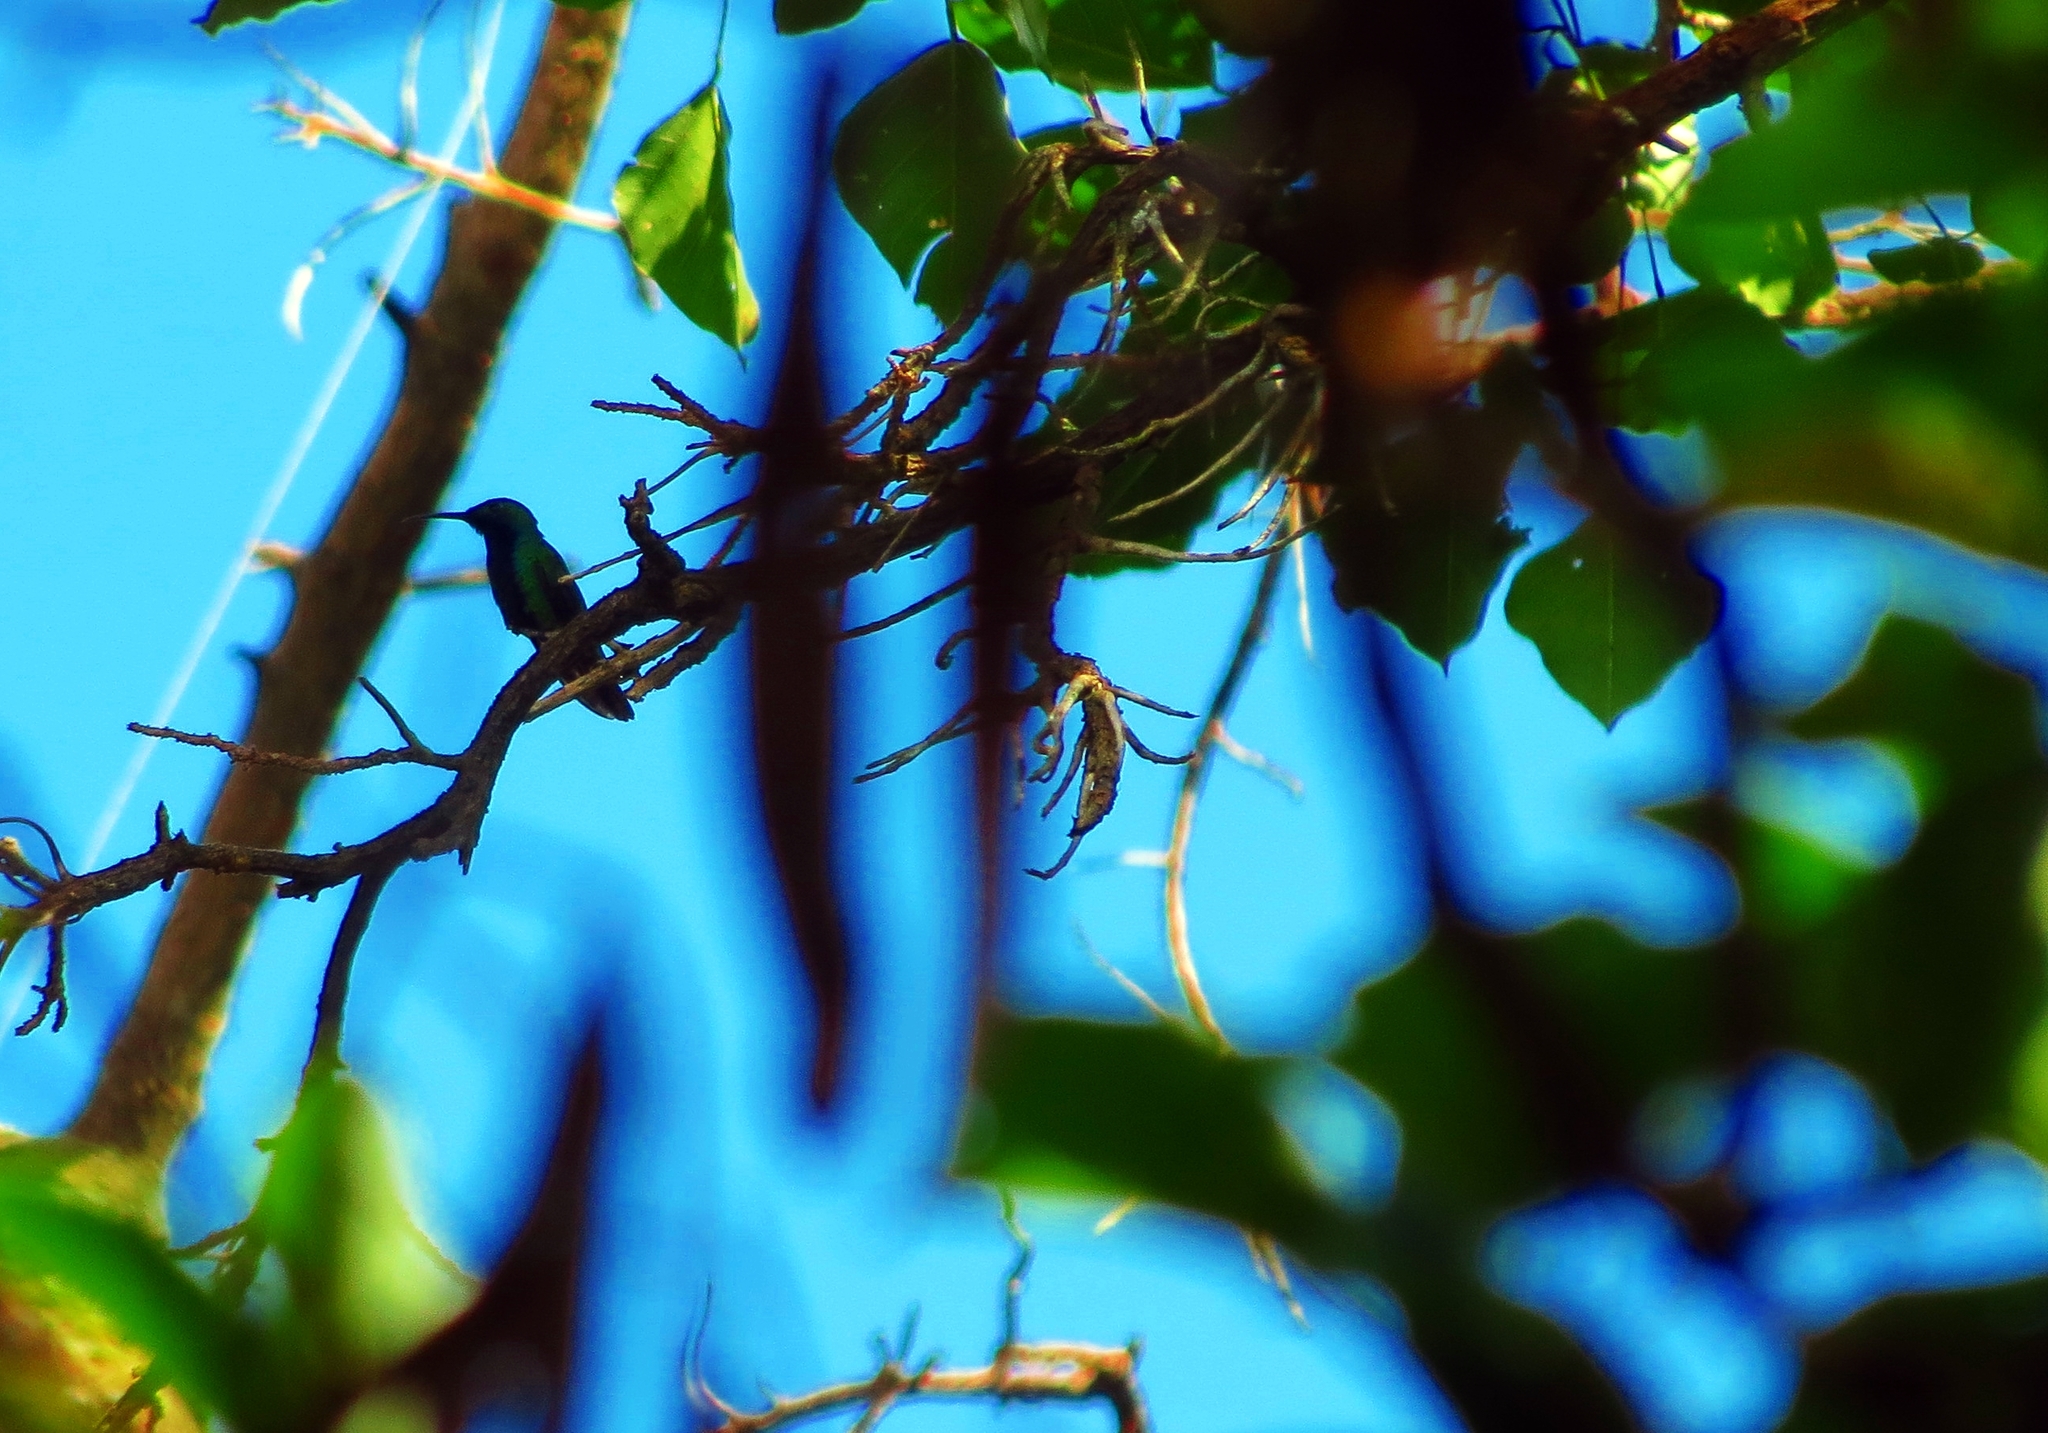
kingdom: Animalia
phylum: Chordata
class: Aves
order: Apodiformes
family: Trochilidae
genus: Anthracothorax
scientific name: Anthracothorax nigricollis
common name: Black-throated mango
